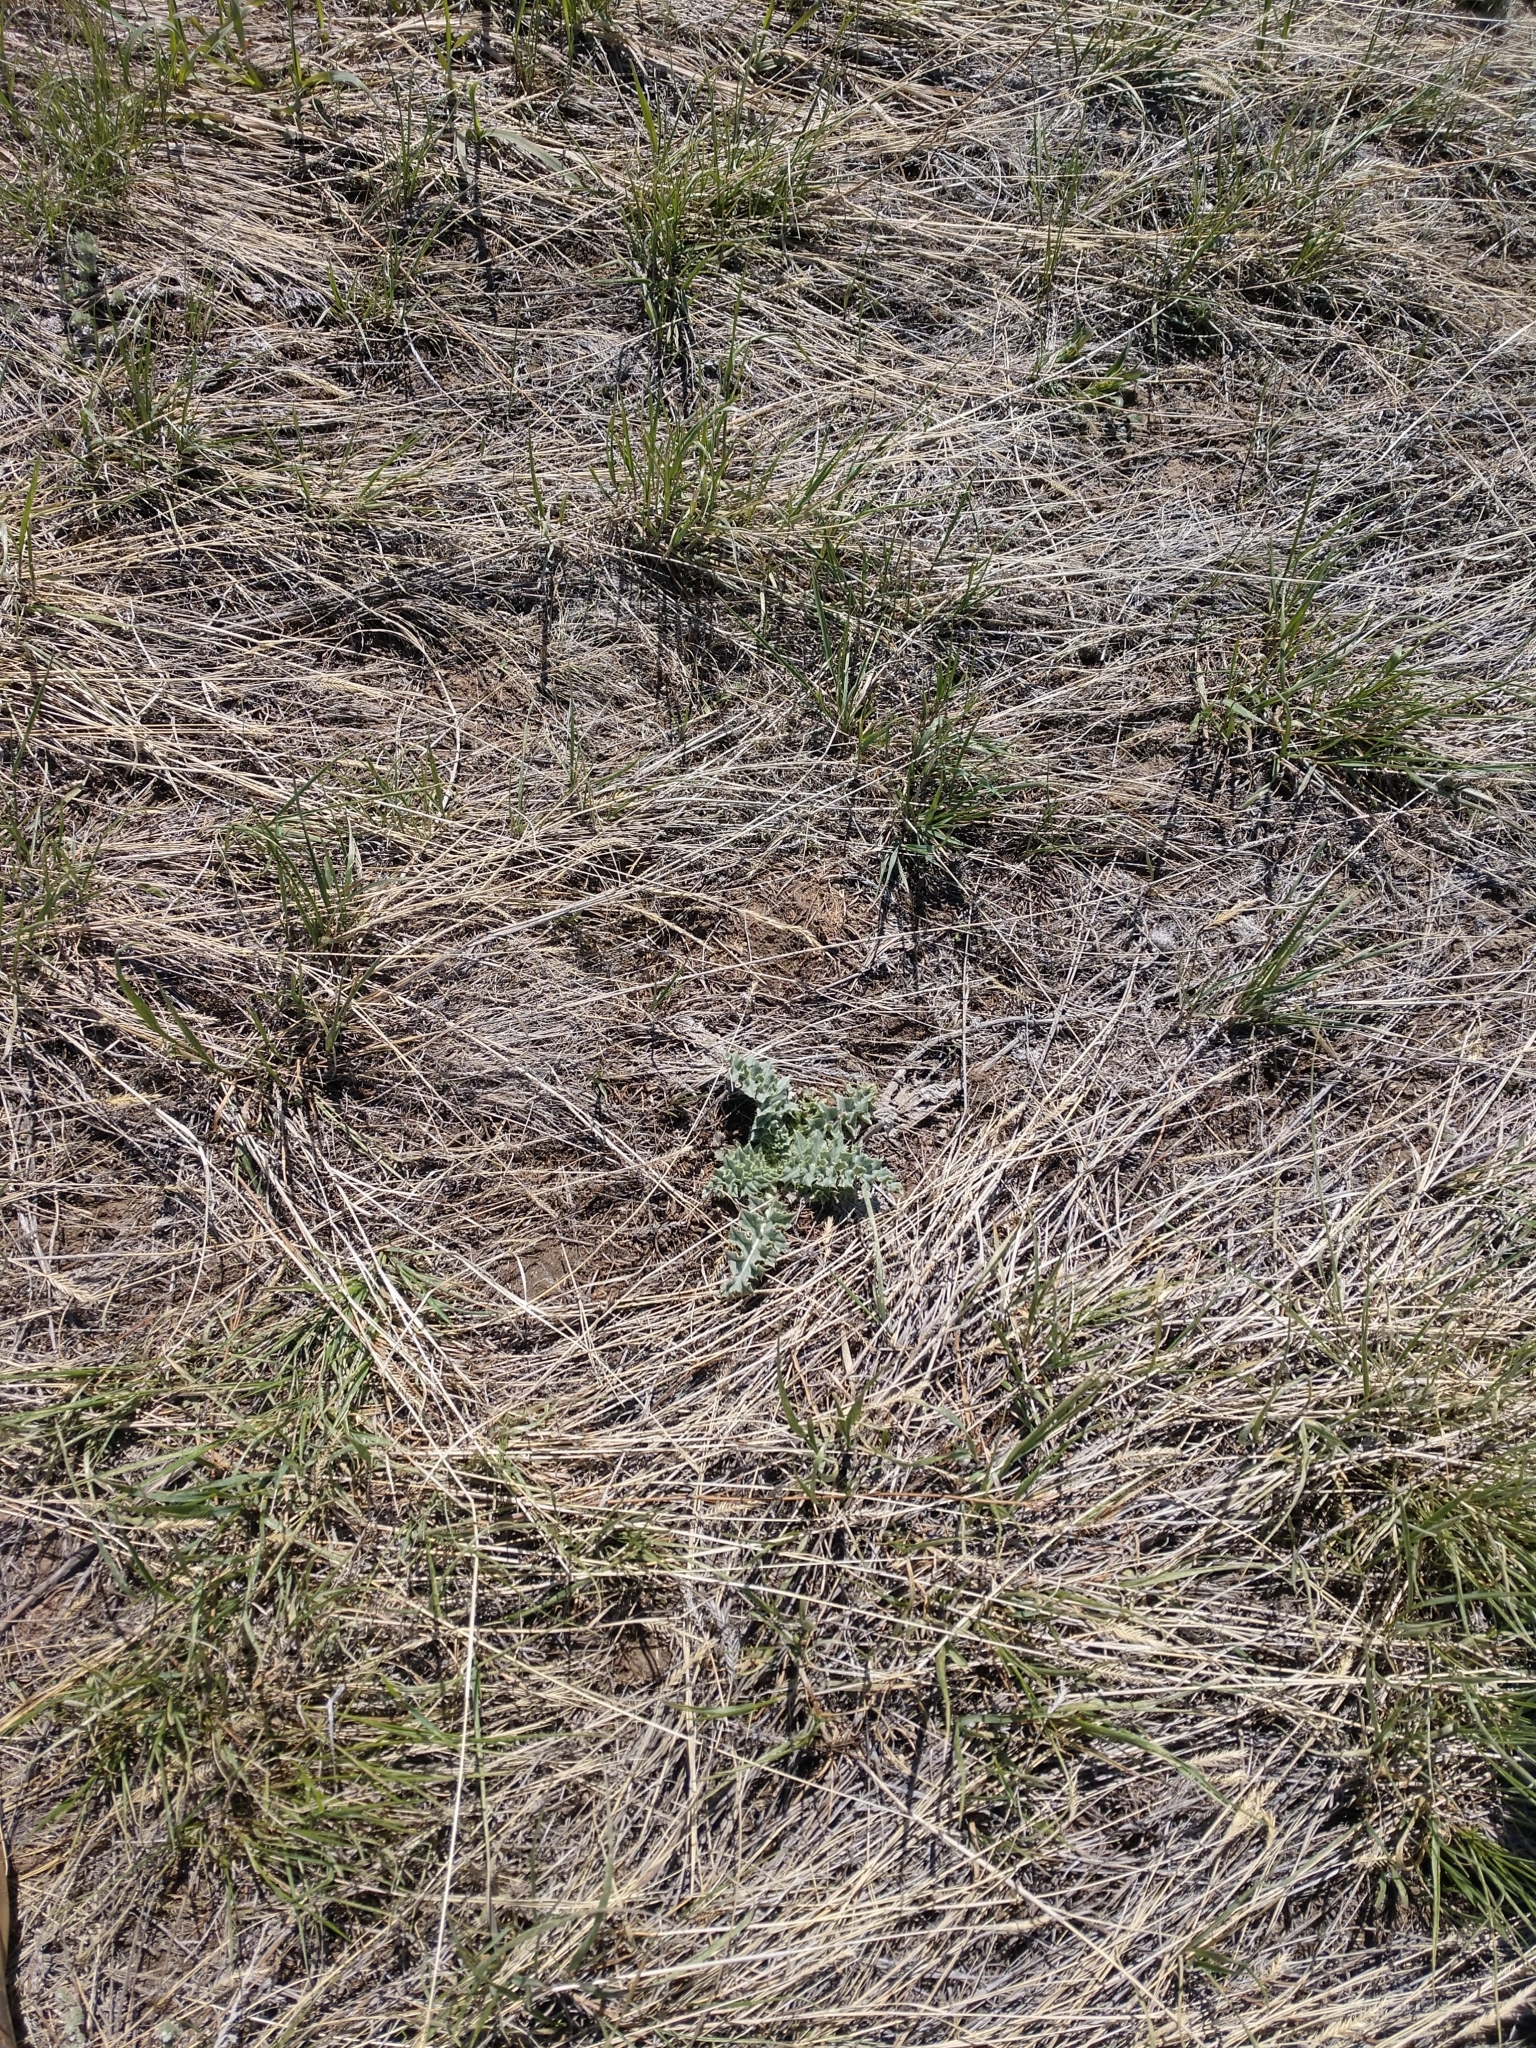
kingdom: Plantae
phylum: Tracheophyta
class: Magnoliopsida
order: Asterales
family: Asteraceae
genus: Cirsium
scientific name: Cirsium undulatum
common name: Pasture thistle
